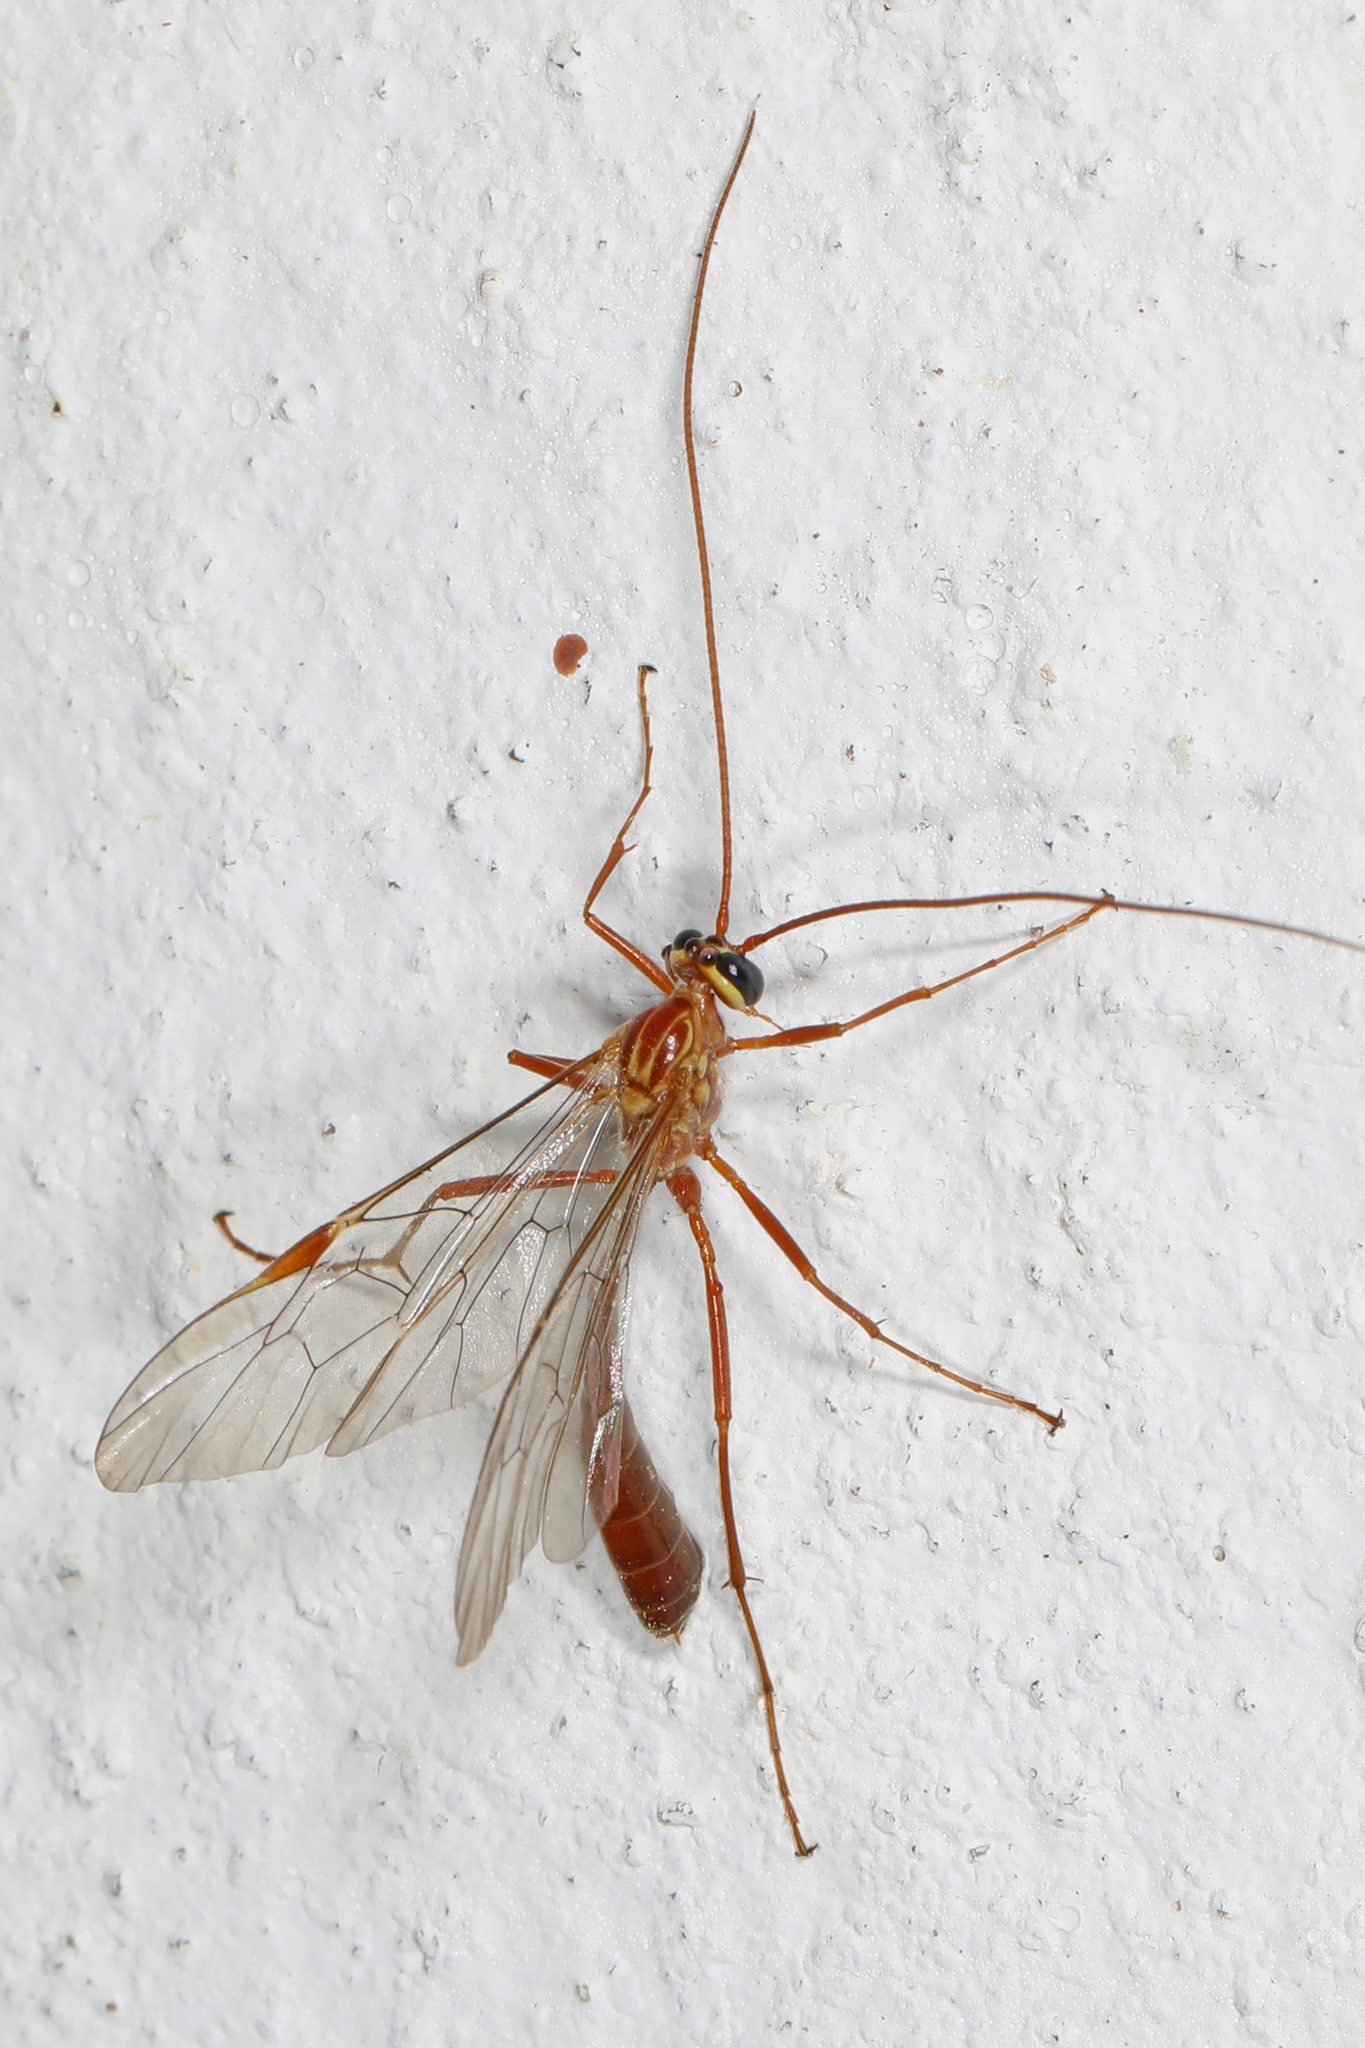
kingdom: Animalia
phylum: Arthropoda
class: Insecta
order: Hymenoptera
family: Ichneumonidae
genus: Ophion
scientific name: Ophion
